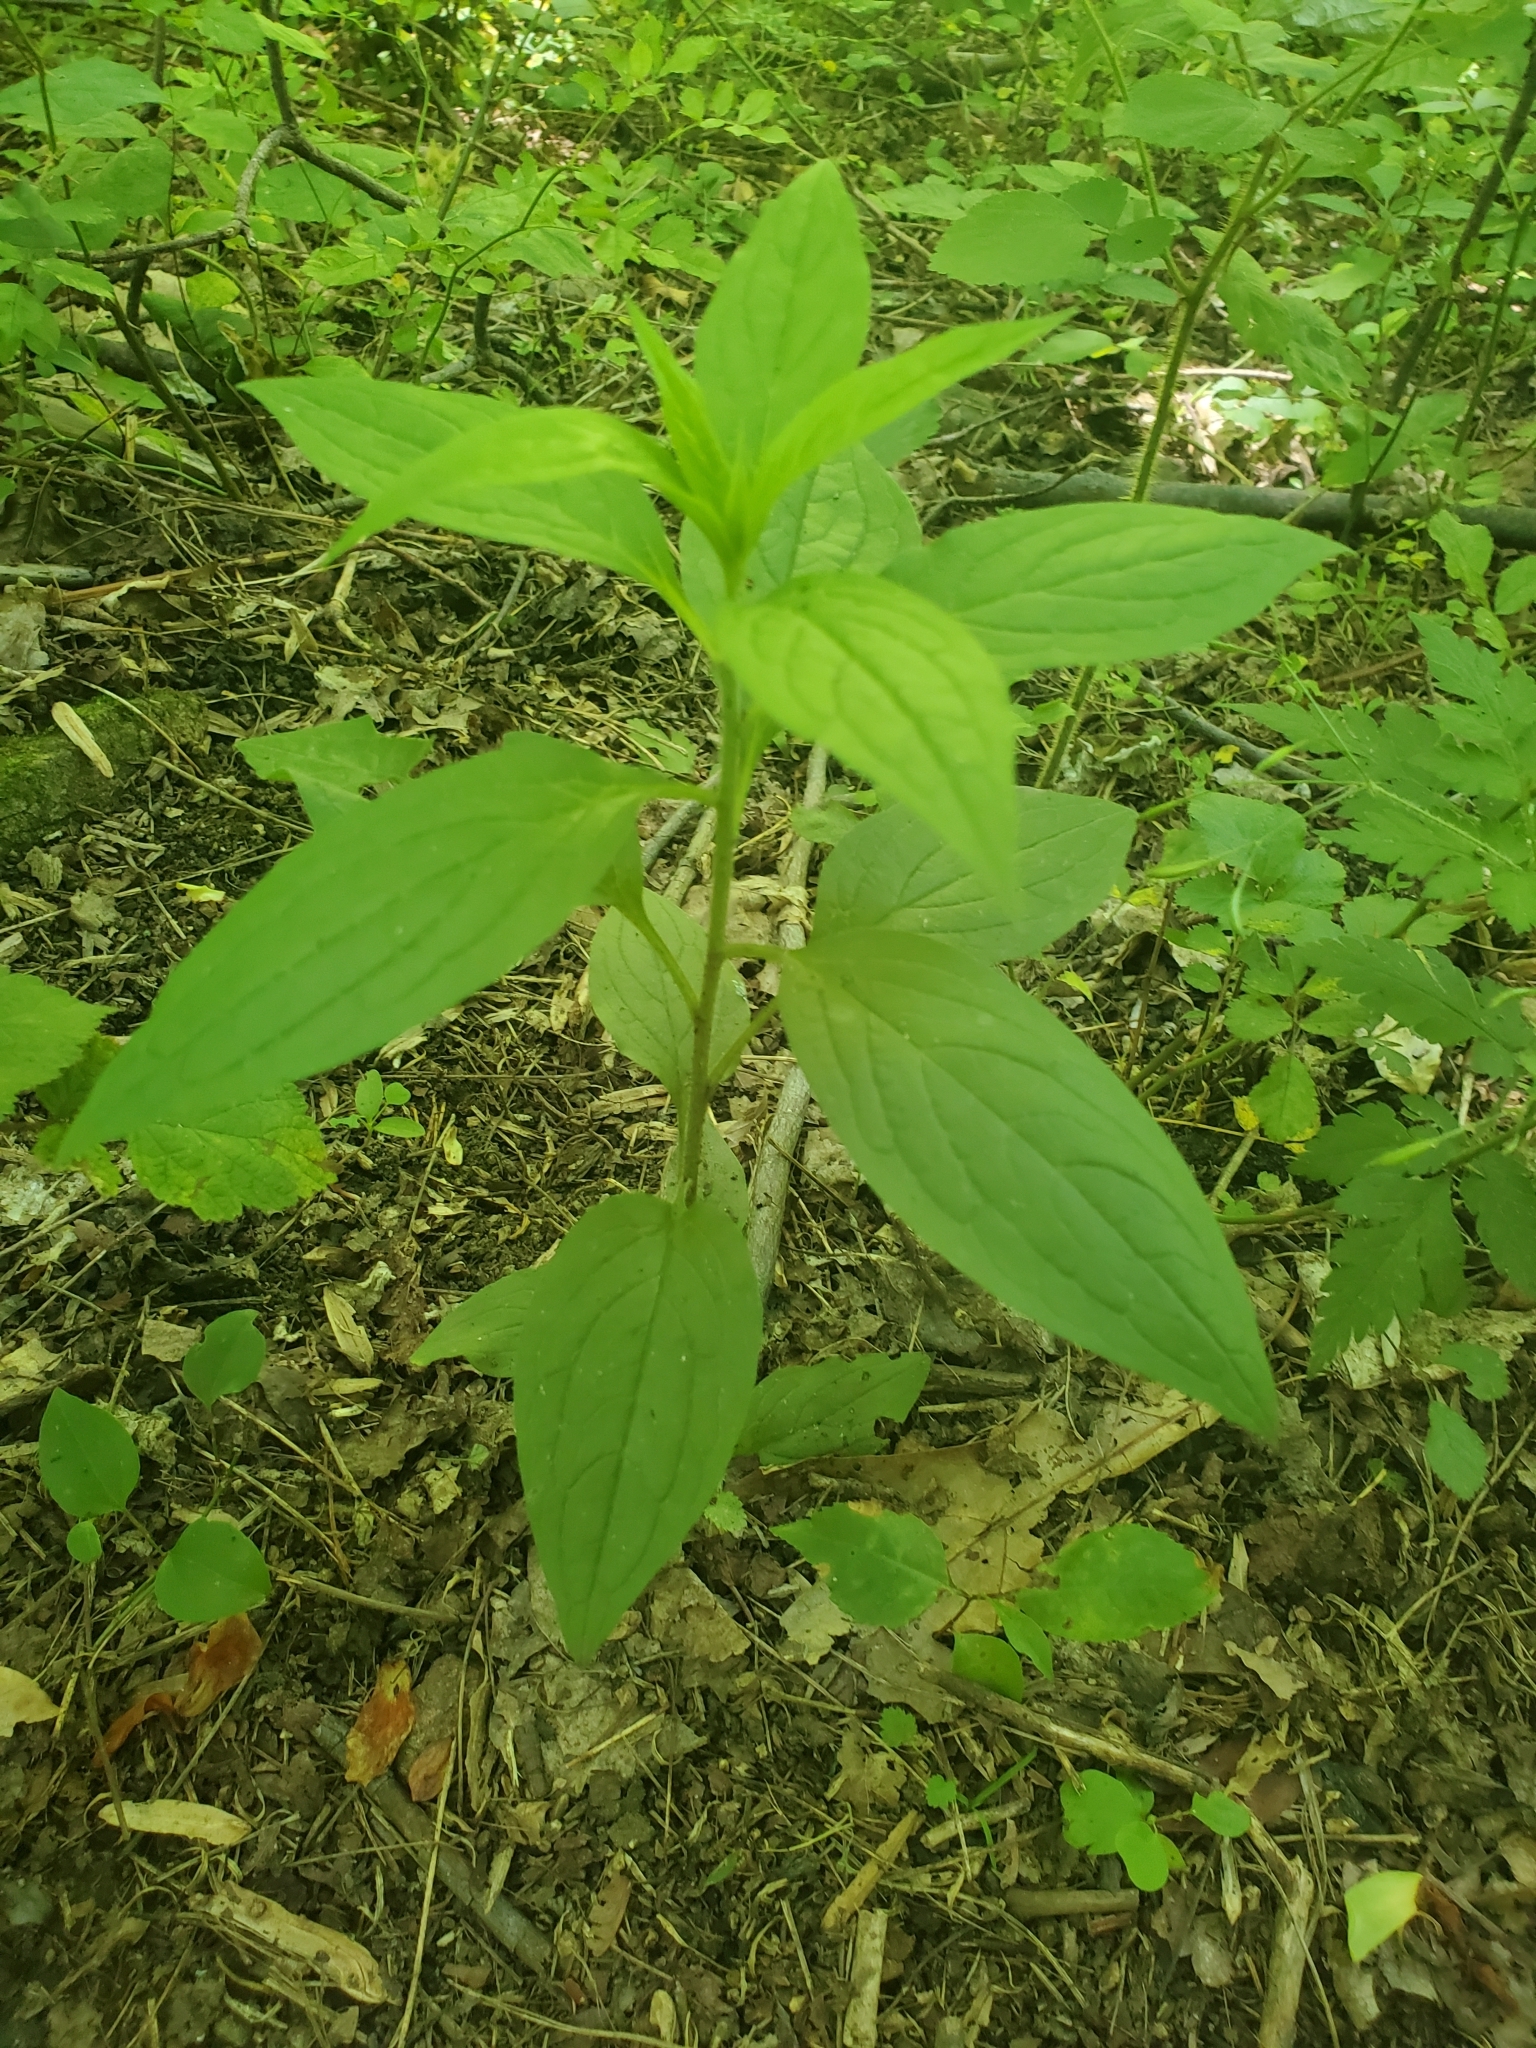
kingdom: Plantae
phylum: Tracheophyta
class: Magnoliopsida
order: Boraginales
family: Boraginaceae
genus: Hackelia
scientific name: Hackelia virginiana
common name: Beggar's-lice
